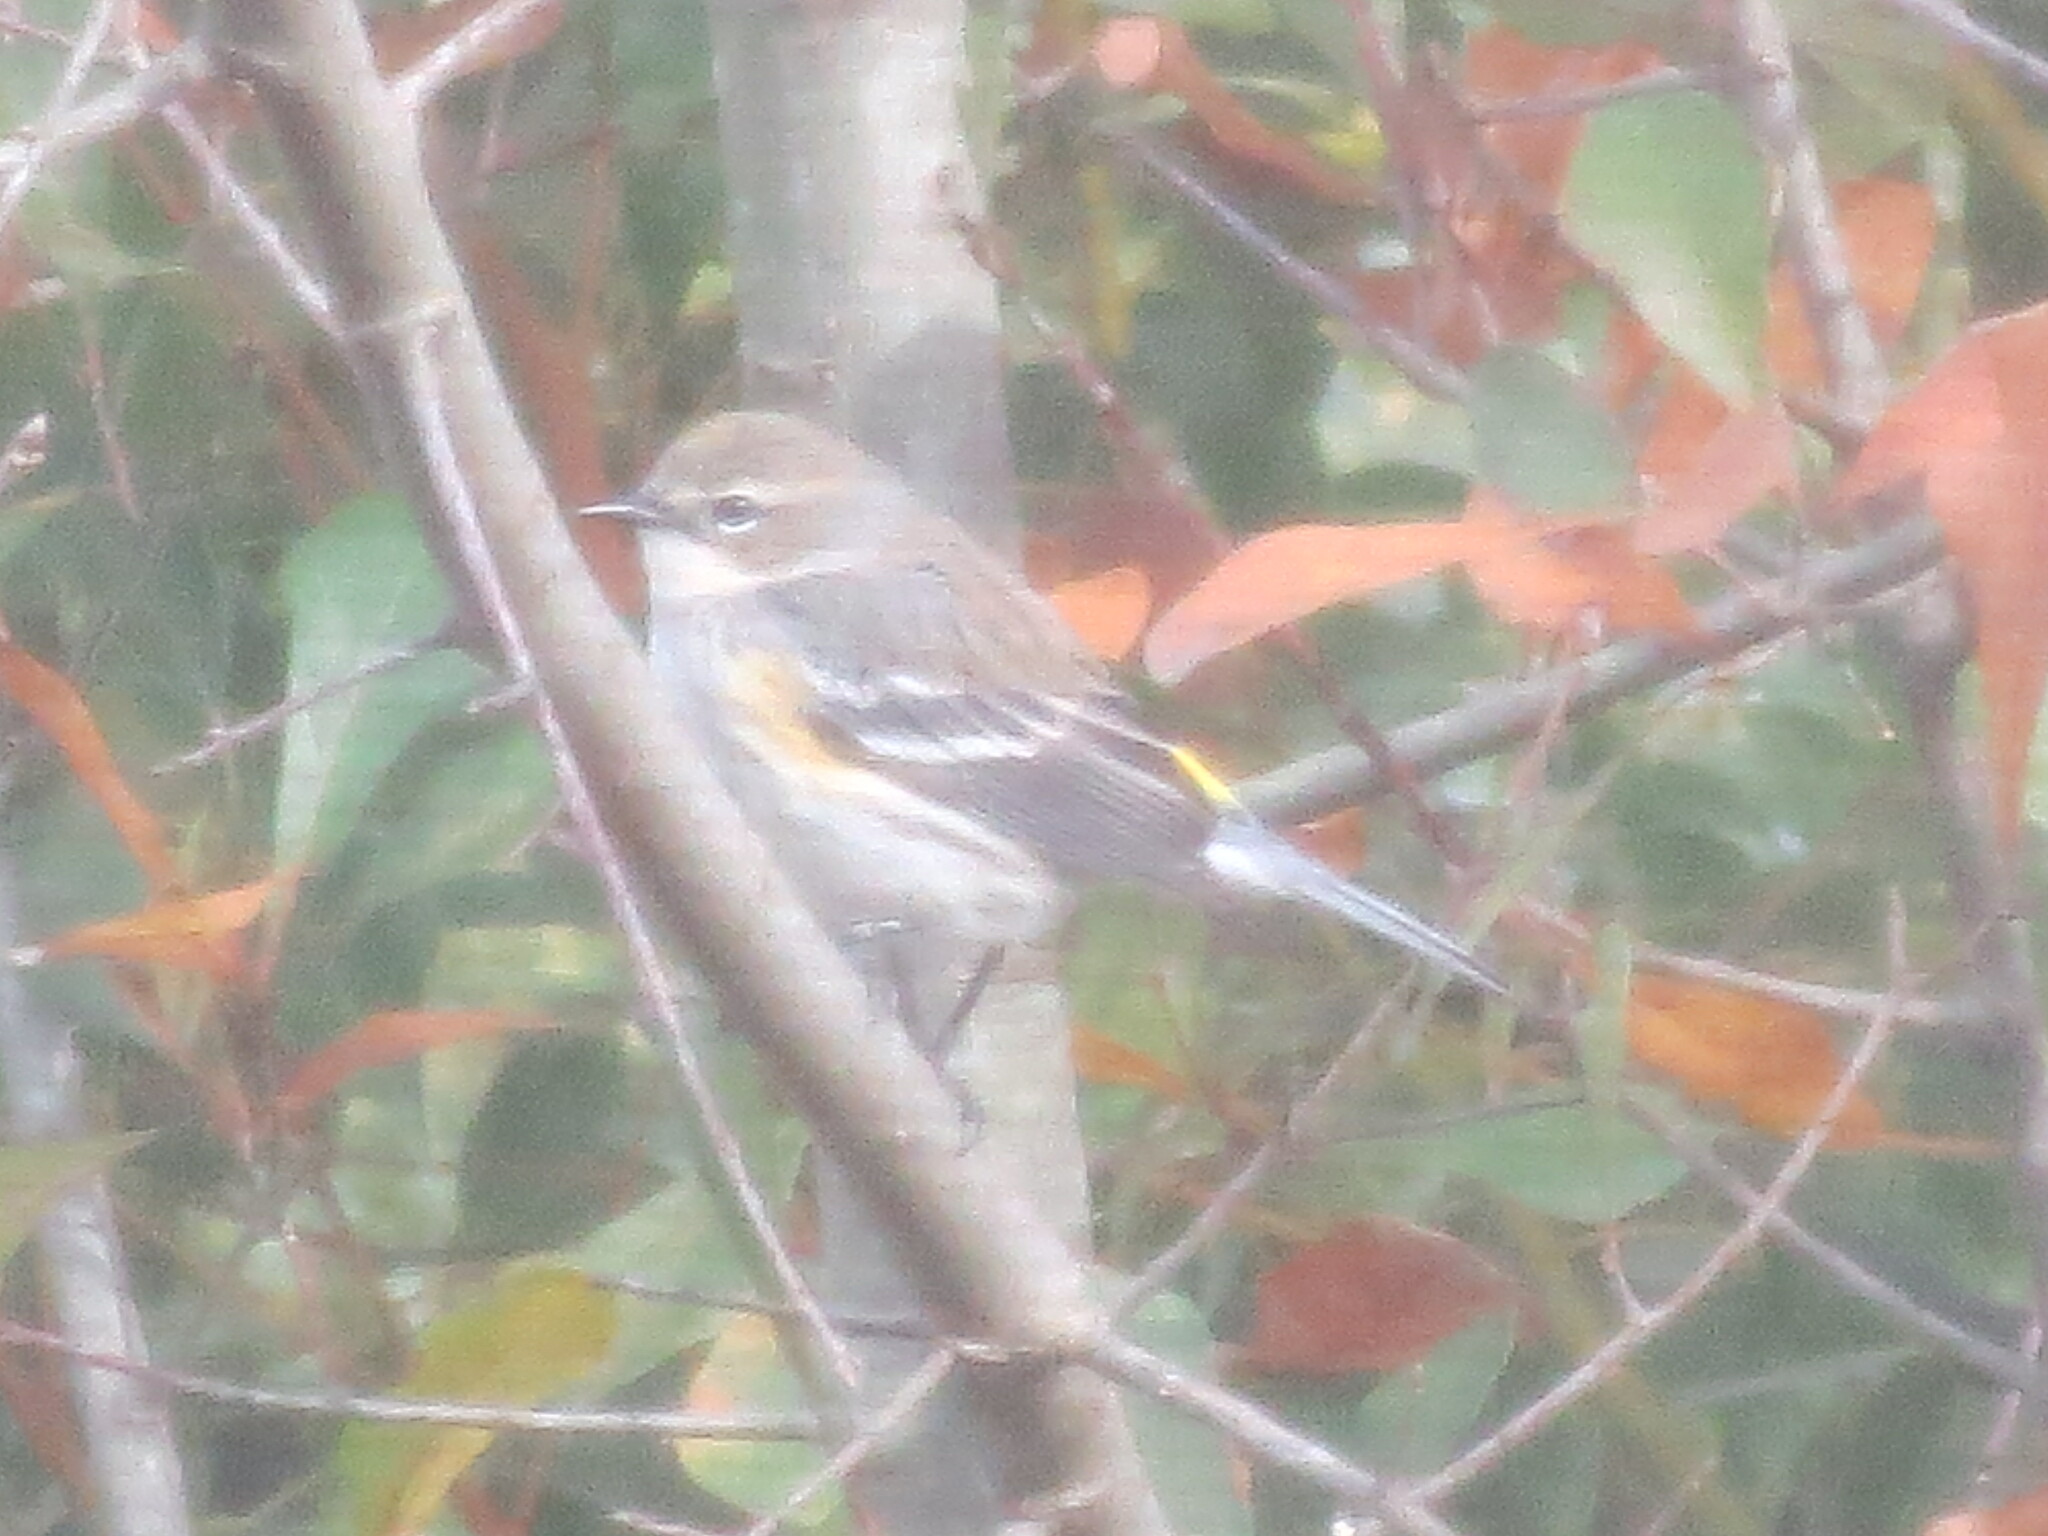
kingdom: Animalia
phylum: Chordata
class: Aves
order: Passeriformes
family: Parulidae
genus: Setophaga
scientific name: Setophaga coronata
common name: Myrtle warbler
